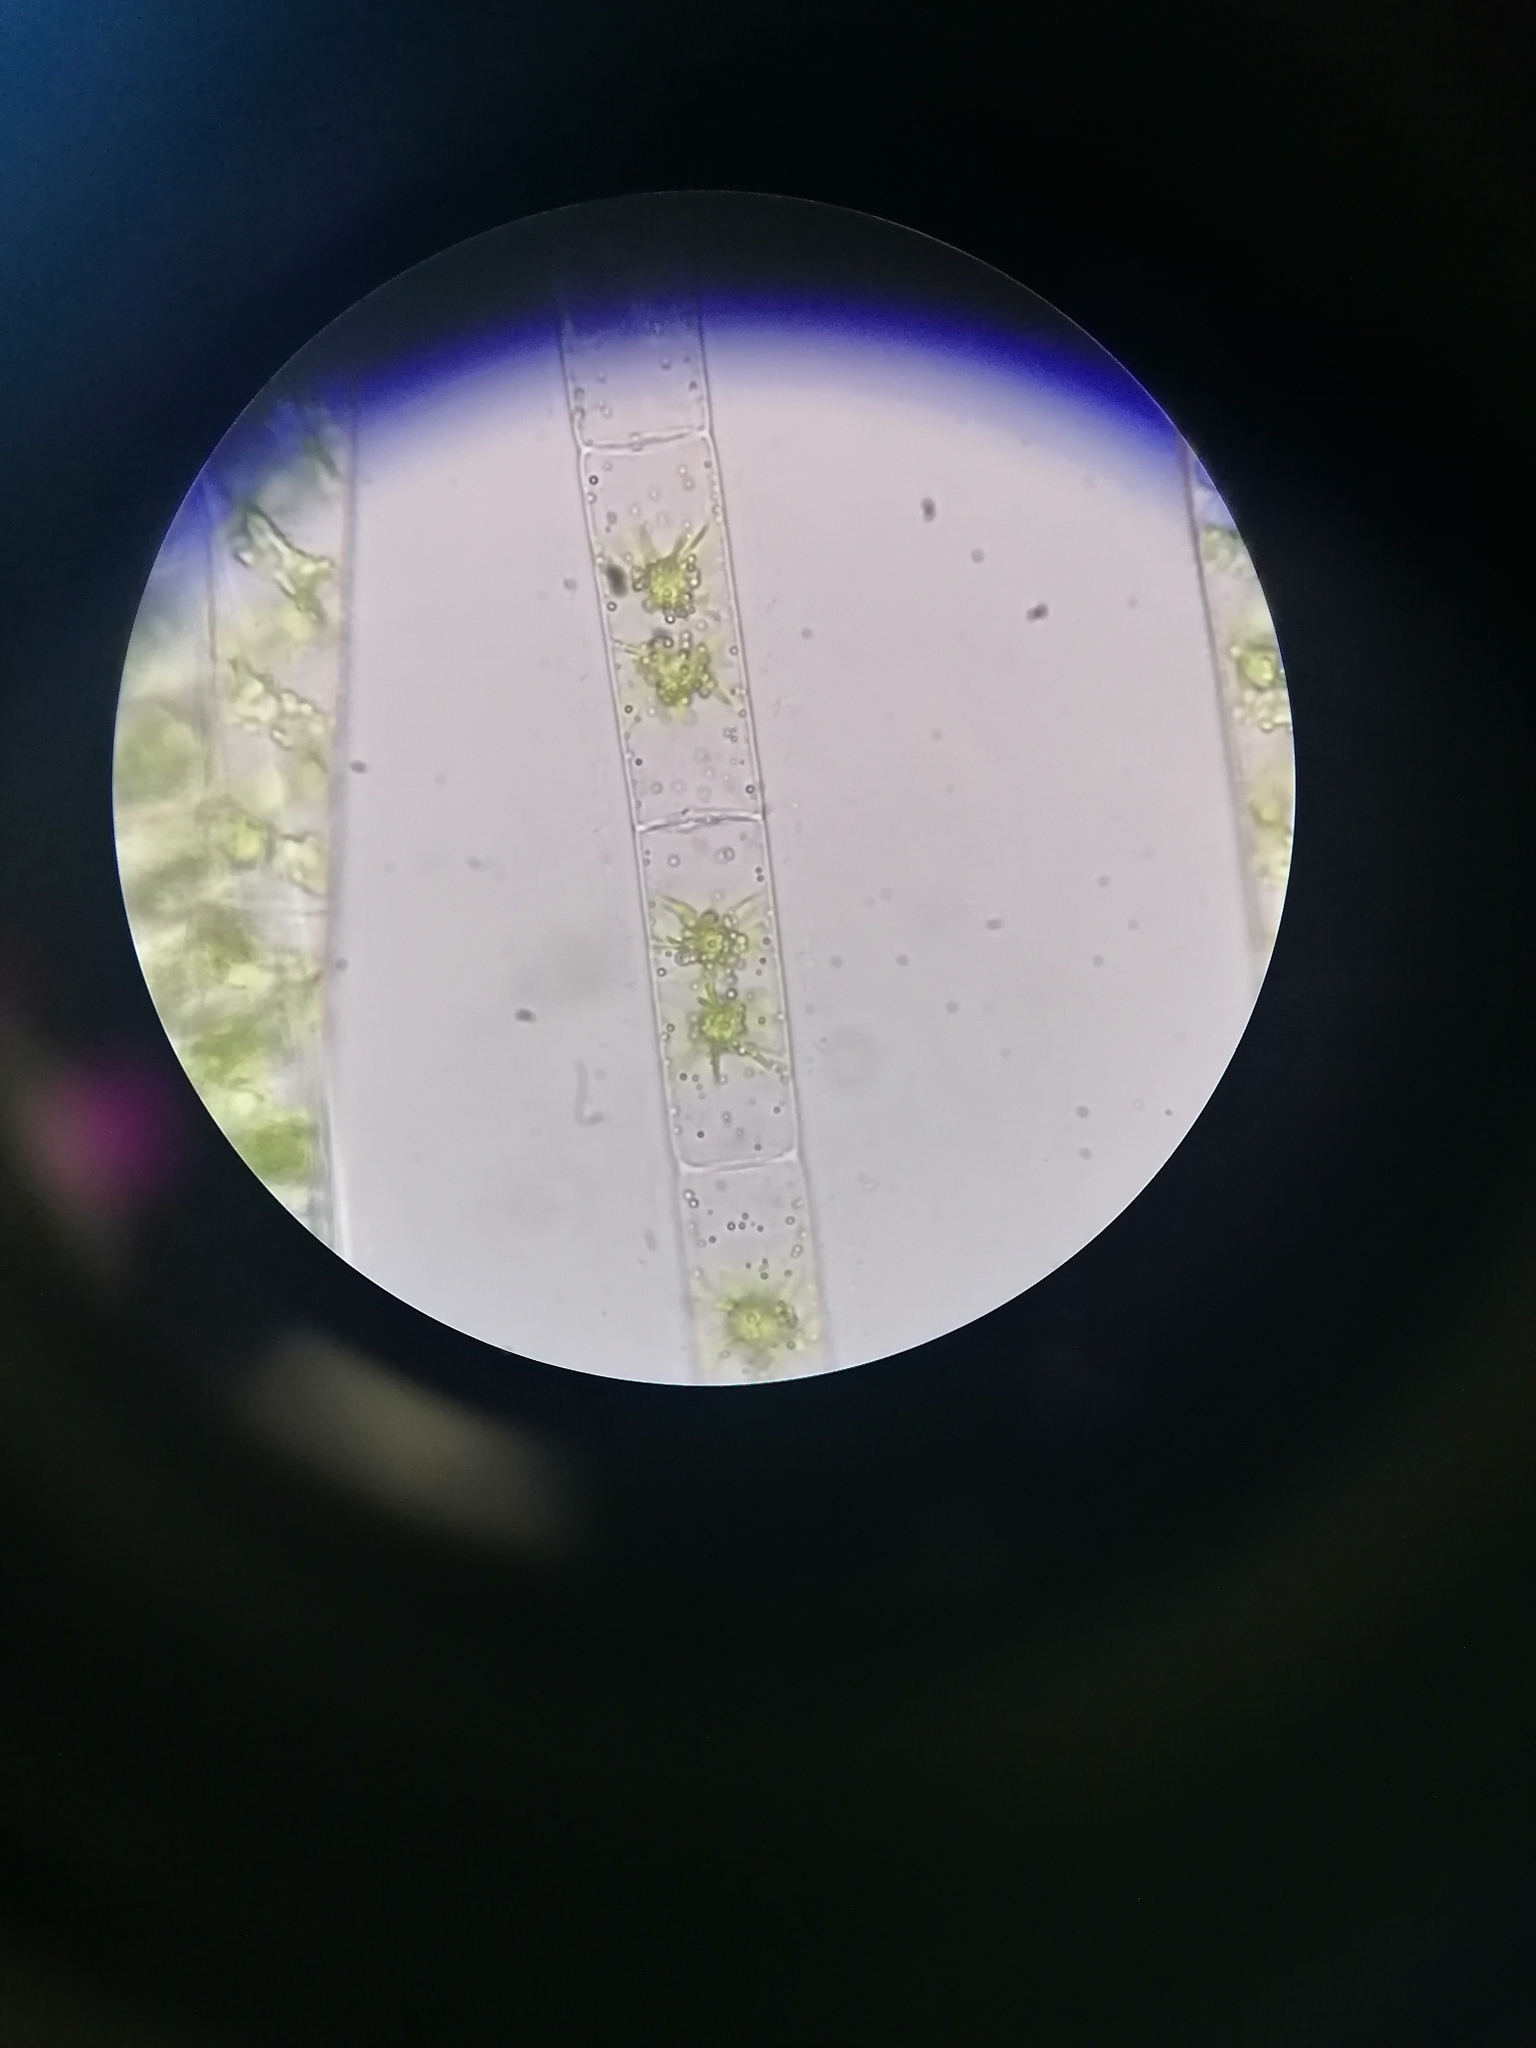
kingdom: Plantae
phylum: Charophyta
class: Zygnematophyceae
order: Zygnematales
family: Zygnemataceae
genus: Zygnema
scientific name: Zygnema
